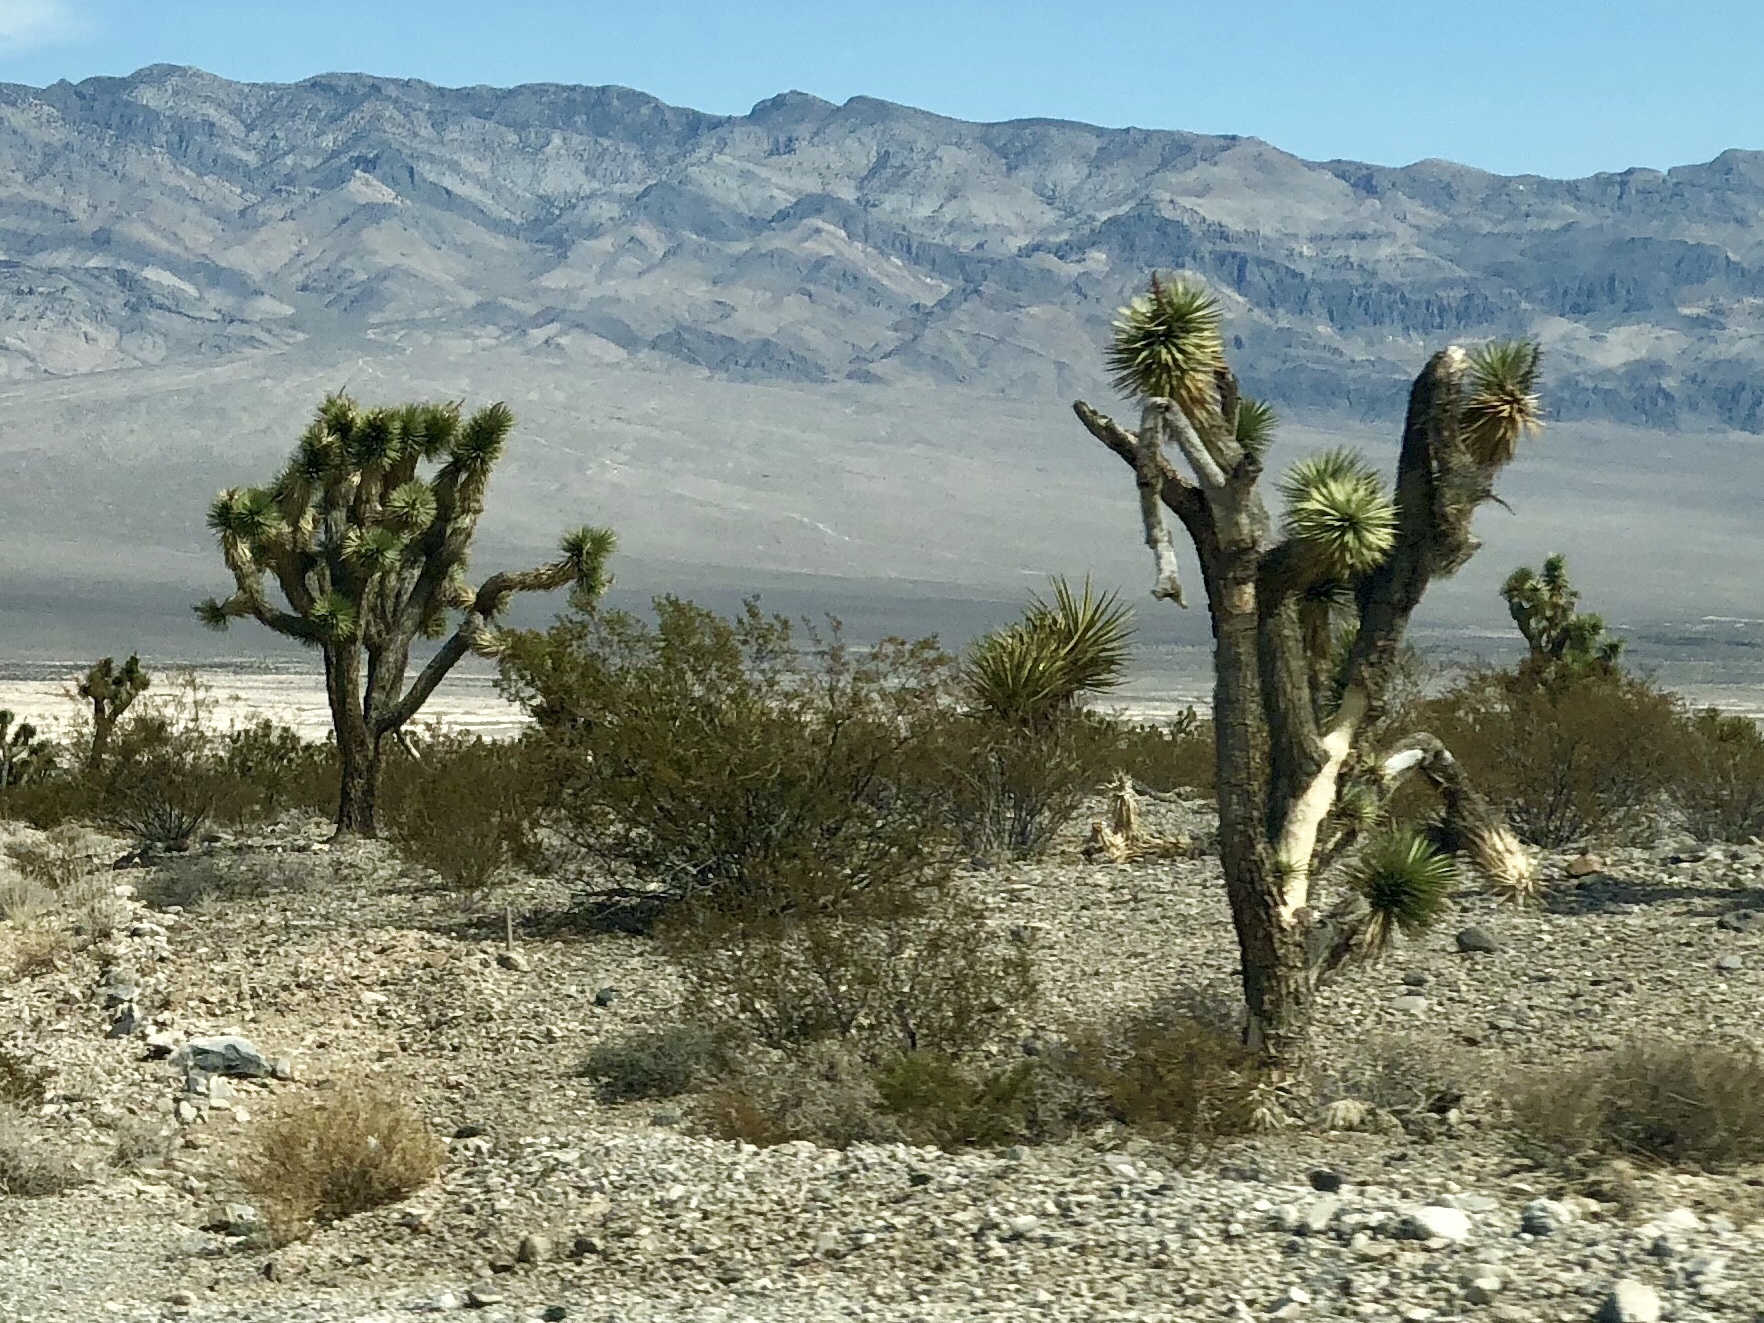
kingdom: Plantae
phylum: Tracheophyta
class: Liliopsida
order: Asparagales
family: Asparagaceae
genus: Yucca
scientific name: Yucca brevifolia
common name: Joshua tree
